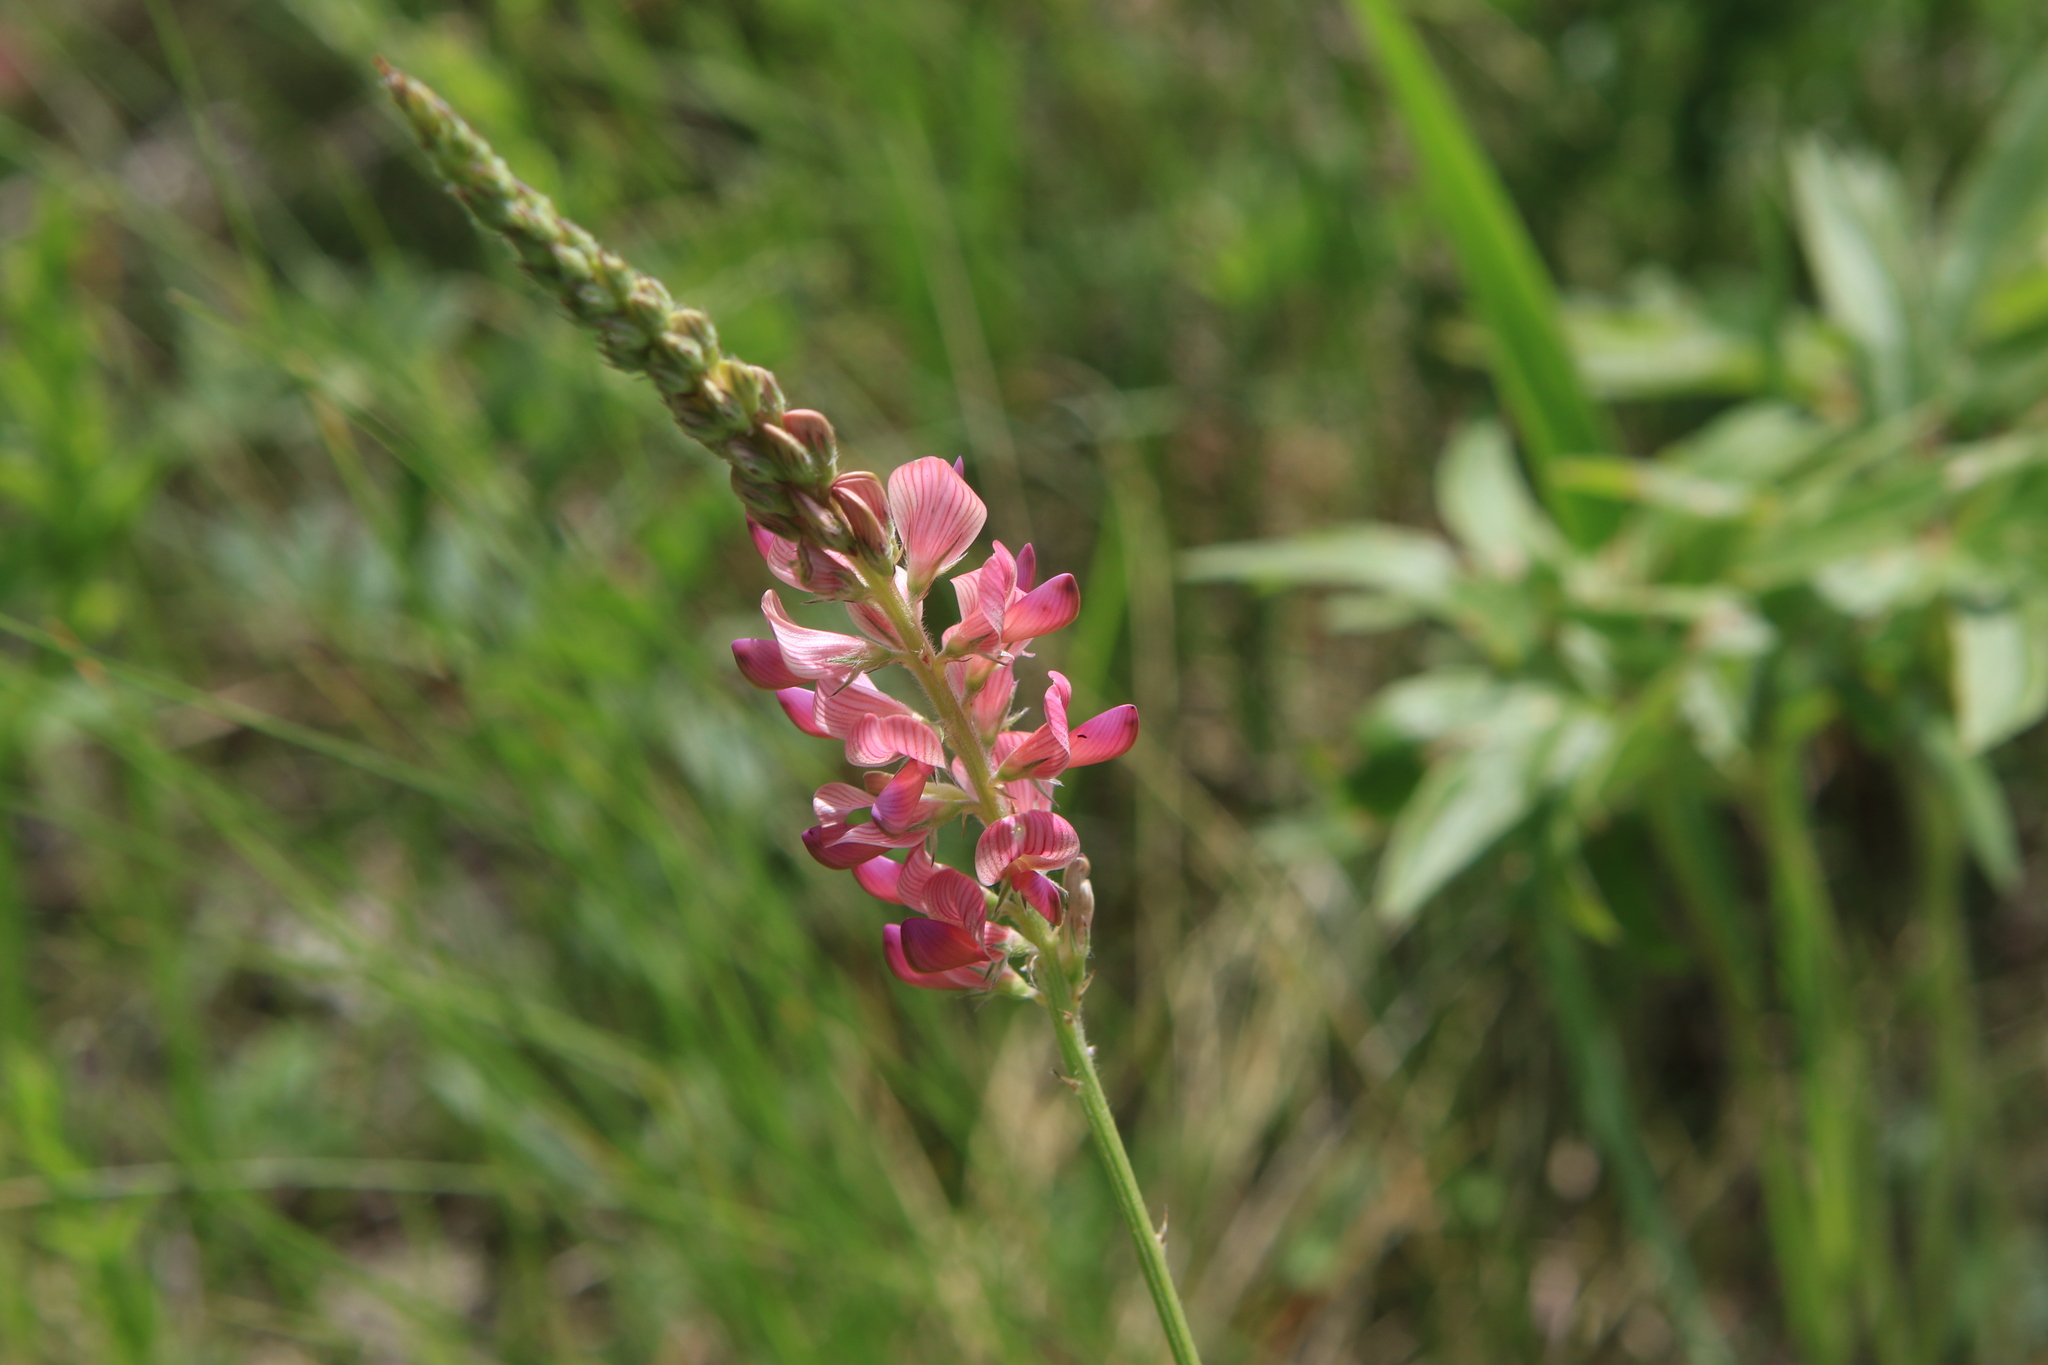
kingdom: Plantae
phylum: Tracheophyta
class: Magnoliopsida
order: Fabales
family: Fabaceae
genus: Onobrychis
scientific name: Onobrychis arenaria
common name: Sand esparcet
